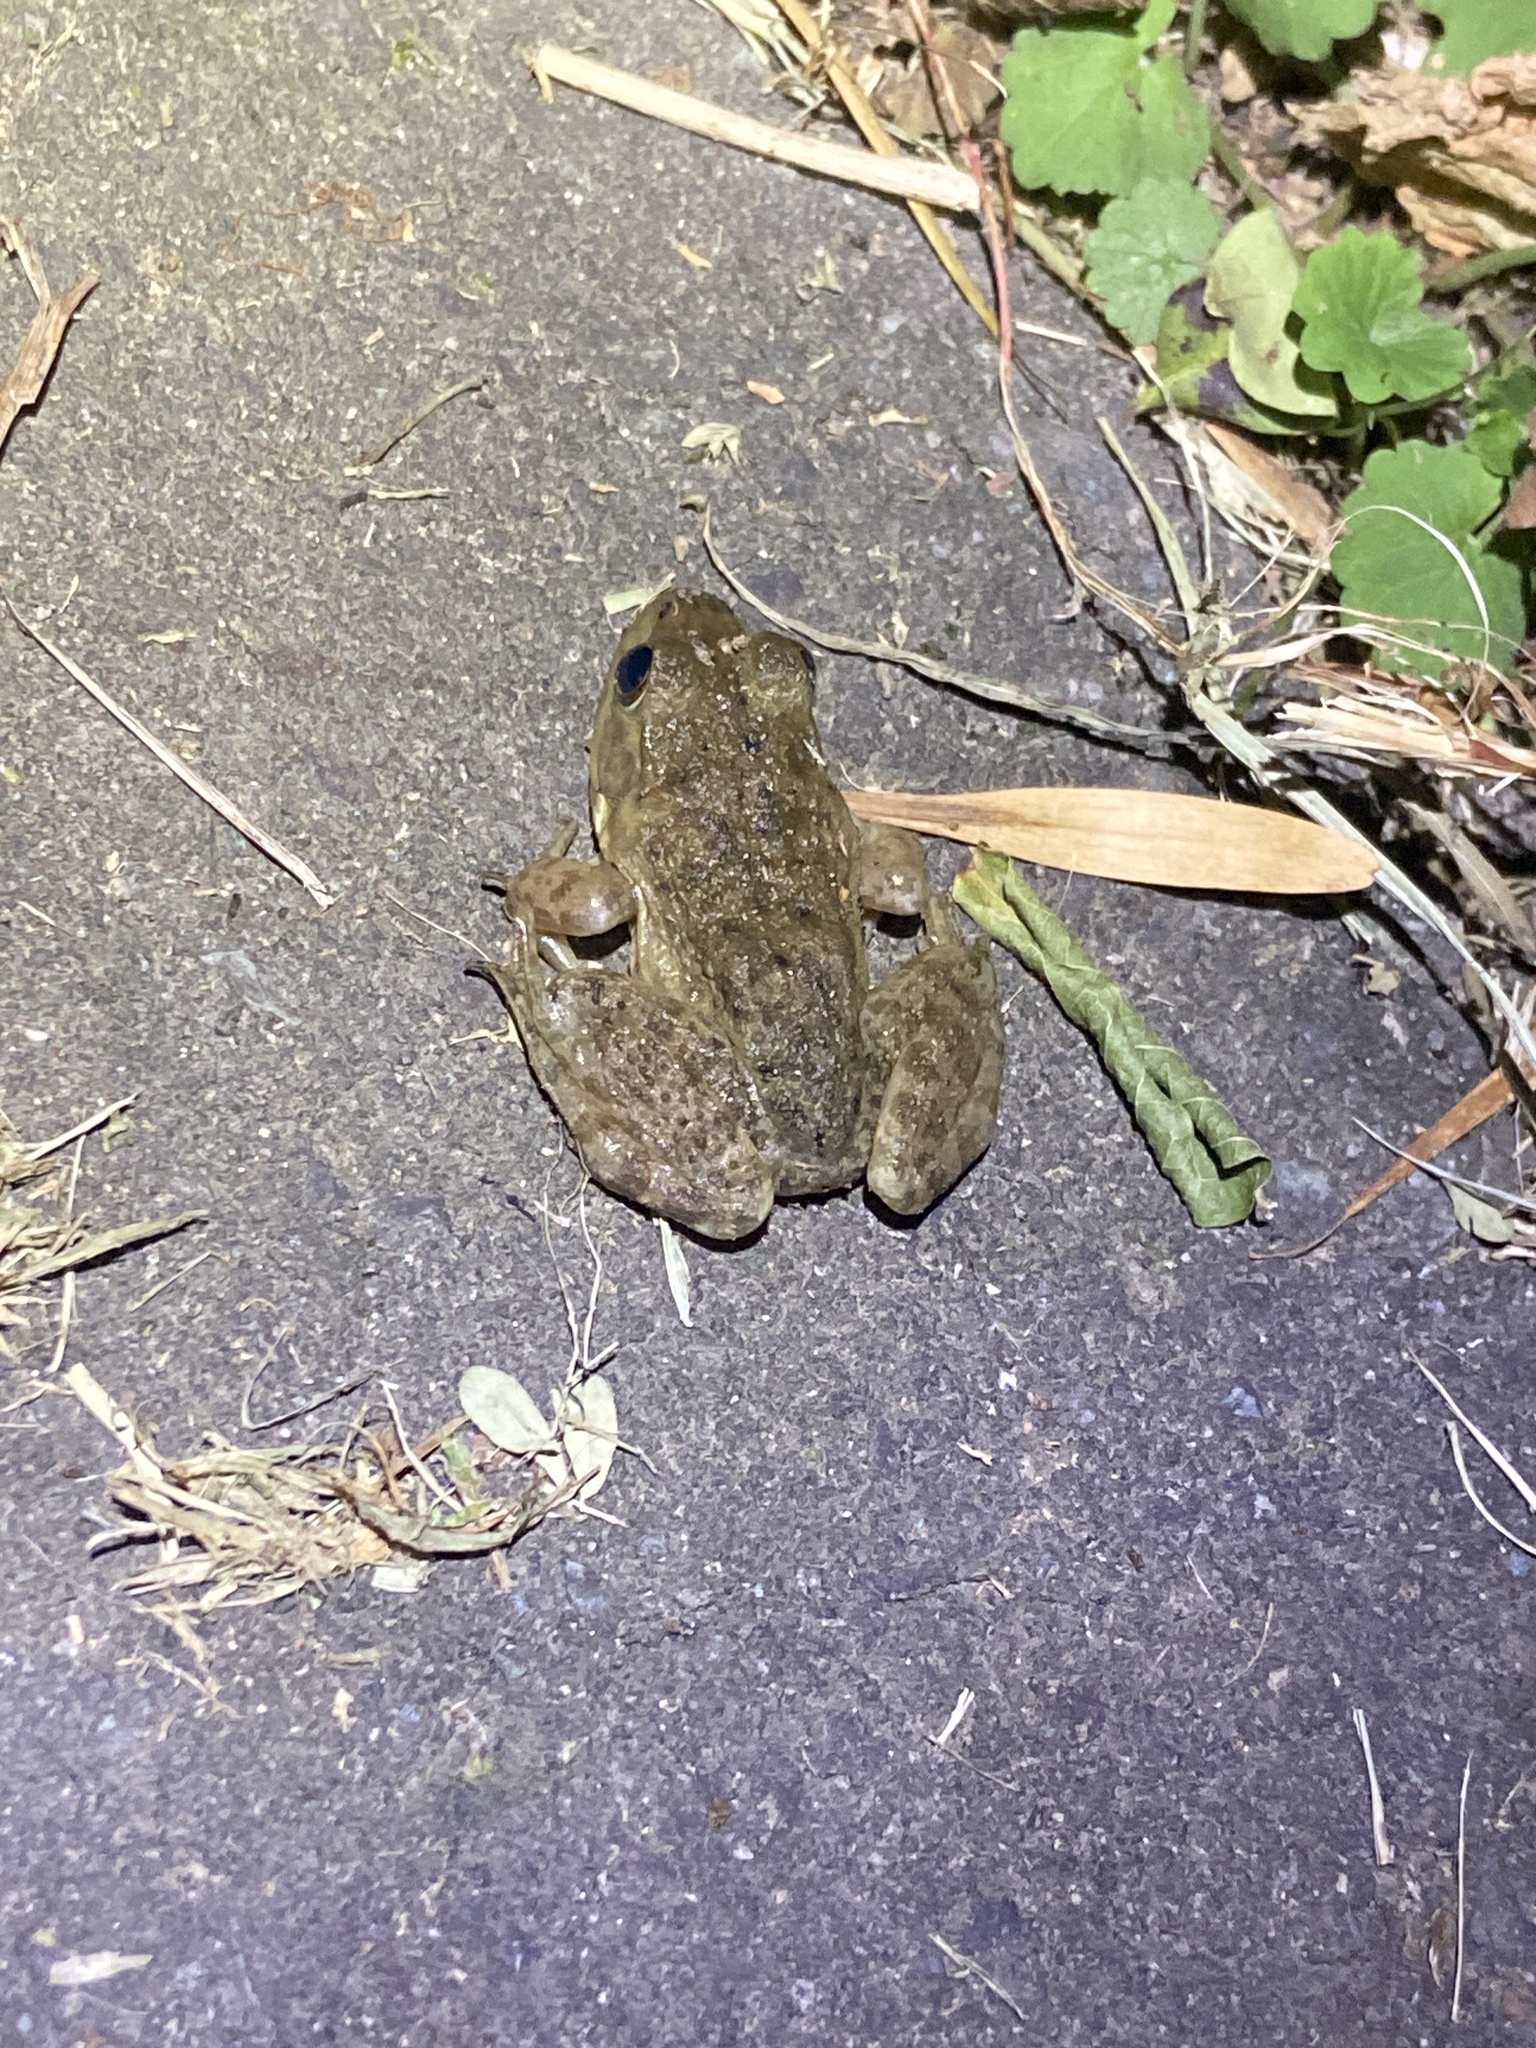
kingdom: Animalia
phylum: Chordata
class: Amphibia
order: Anura
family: Ranidae
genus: Lithobates
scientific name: Lithobates catesbeianus
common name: American bullfrog
